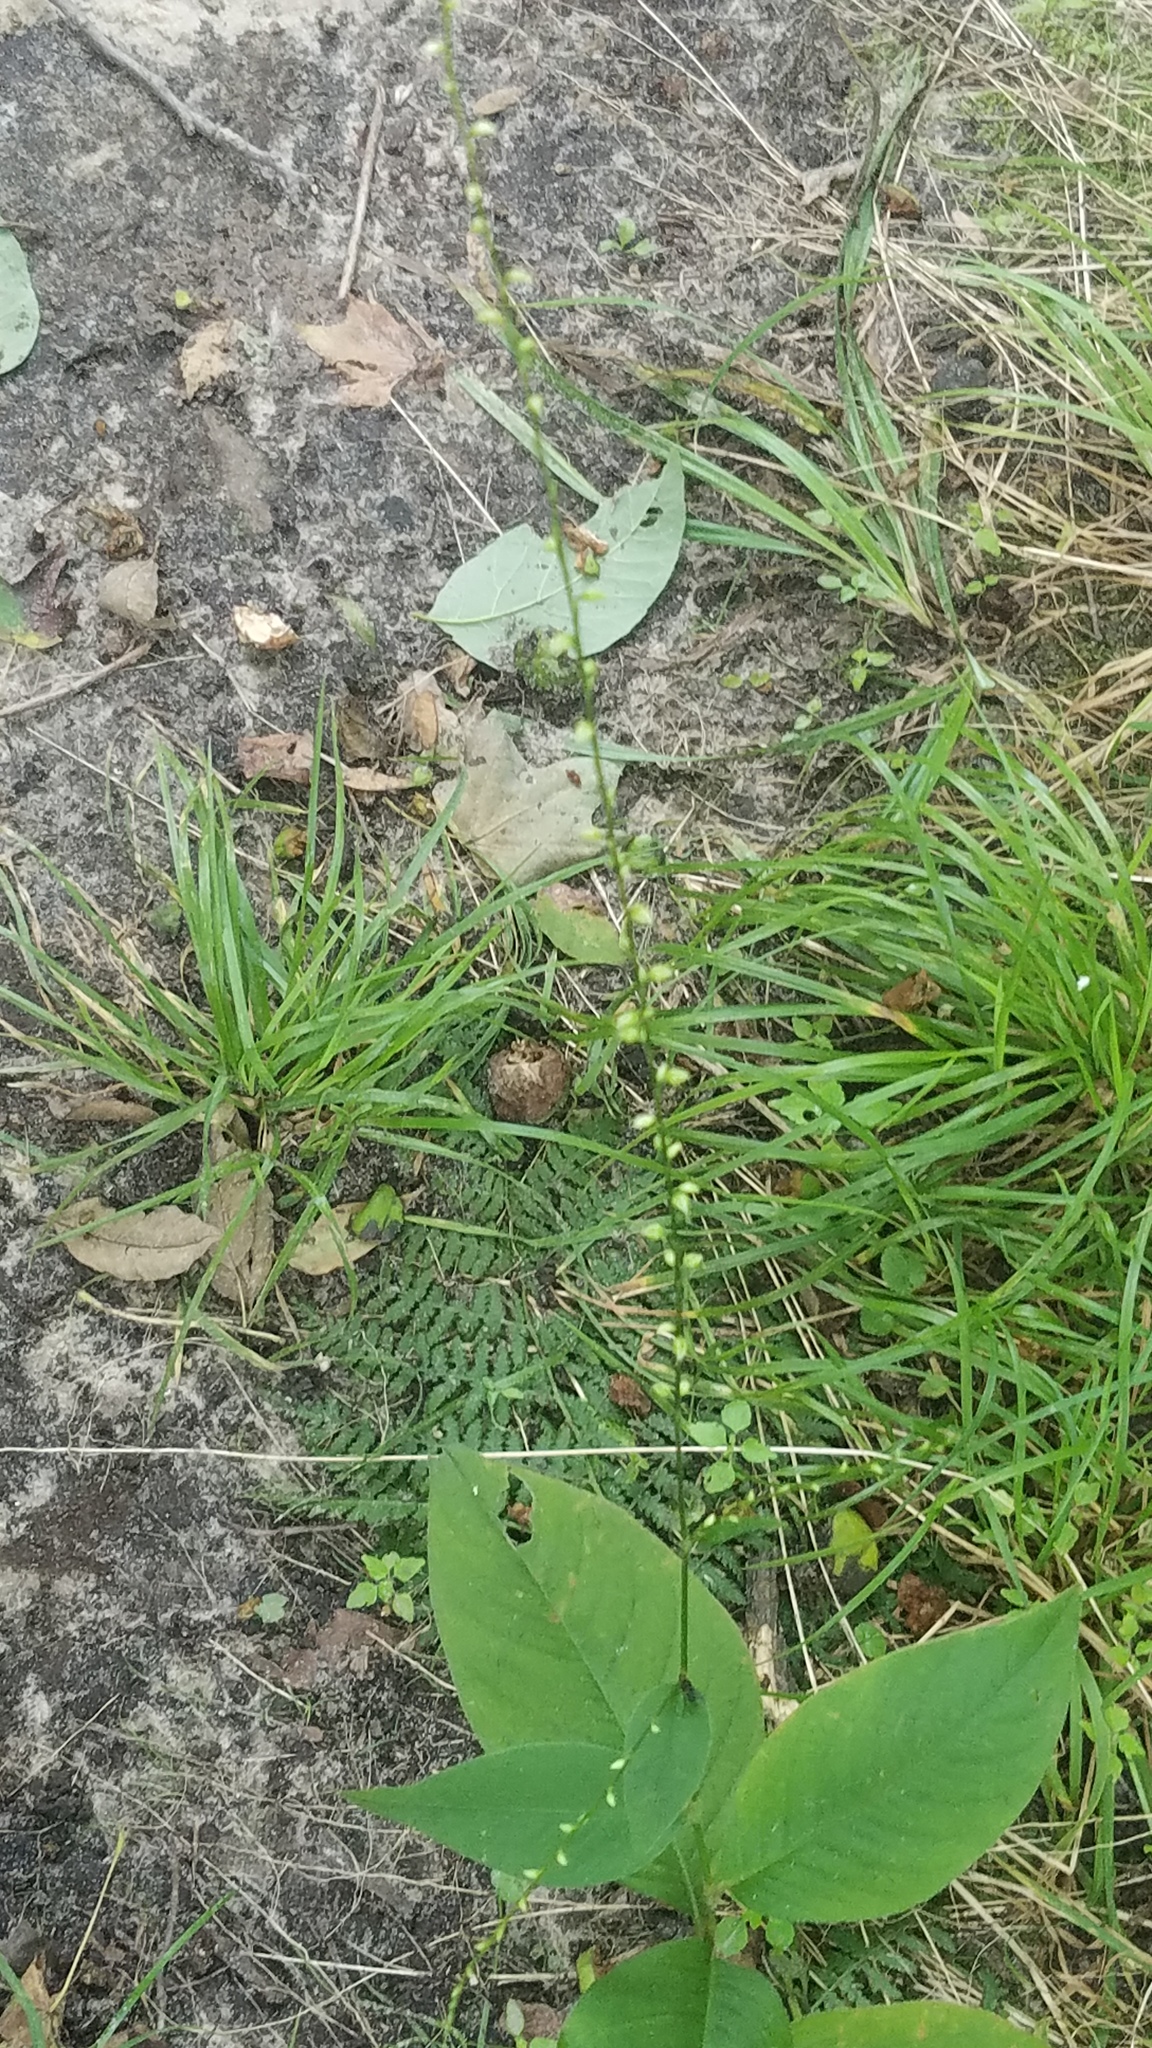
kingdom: Plantae
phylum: Tracheophyta
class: Magnoliopsida
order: Caryophyllales
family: Polygonaceae
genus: Persicaria
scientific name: Persicaria virginiana
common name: Jumpseed
